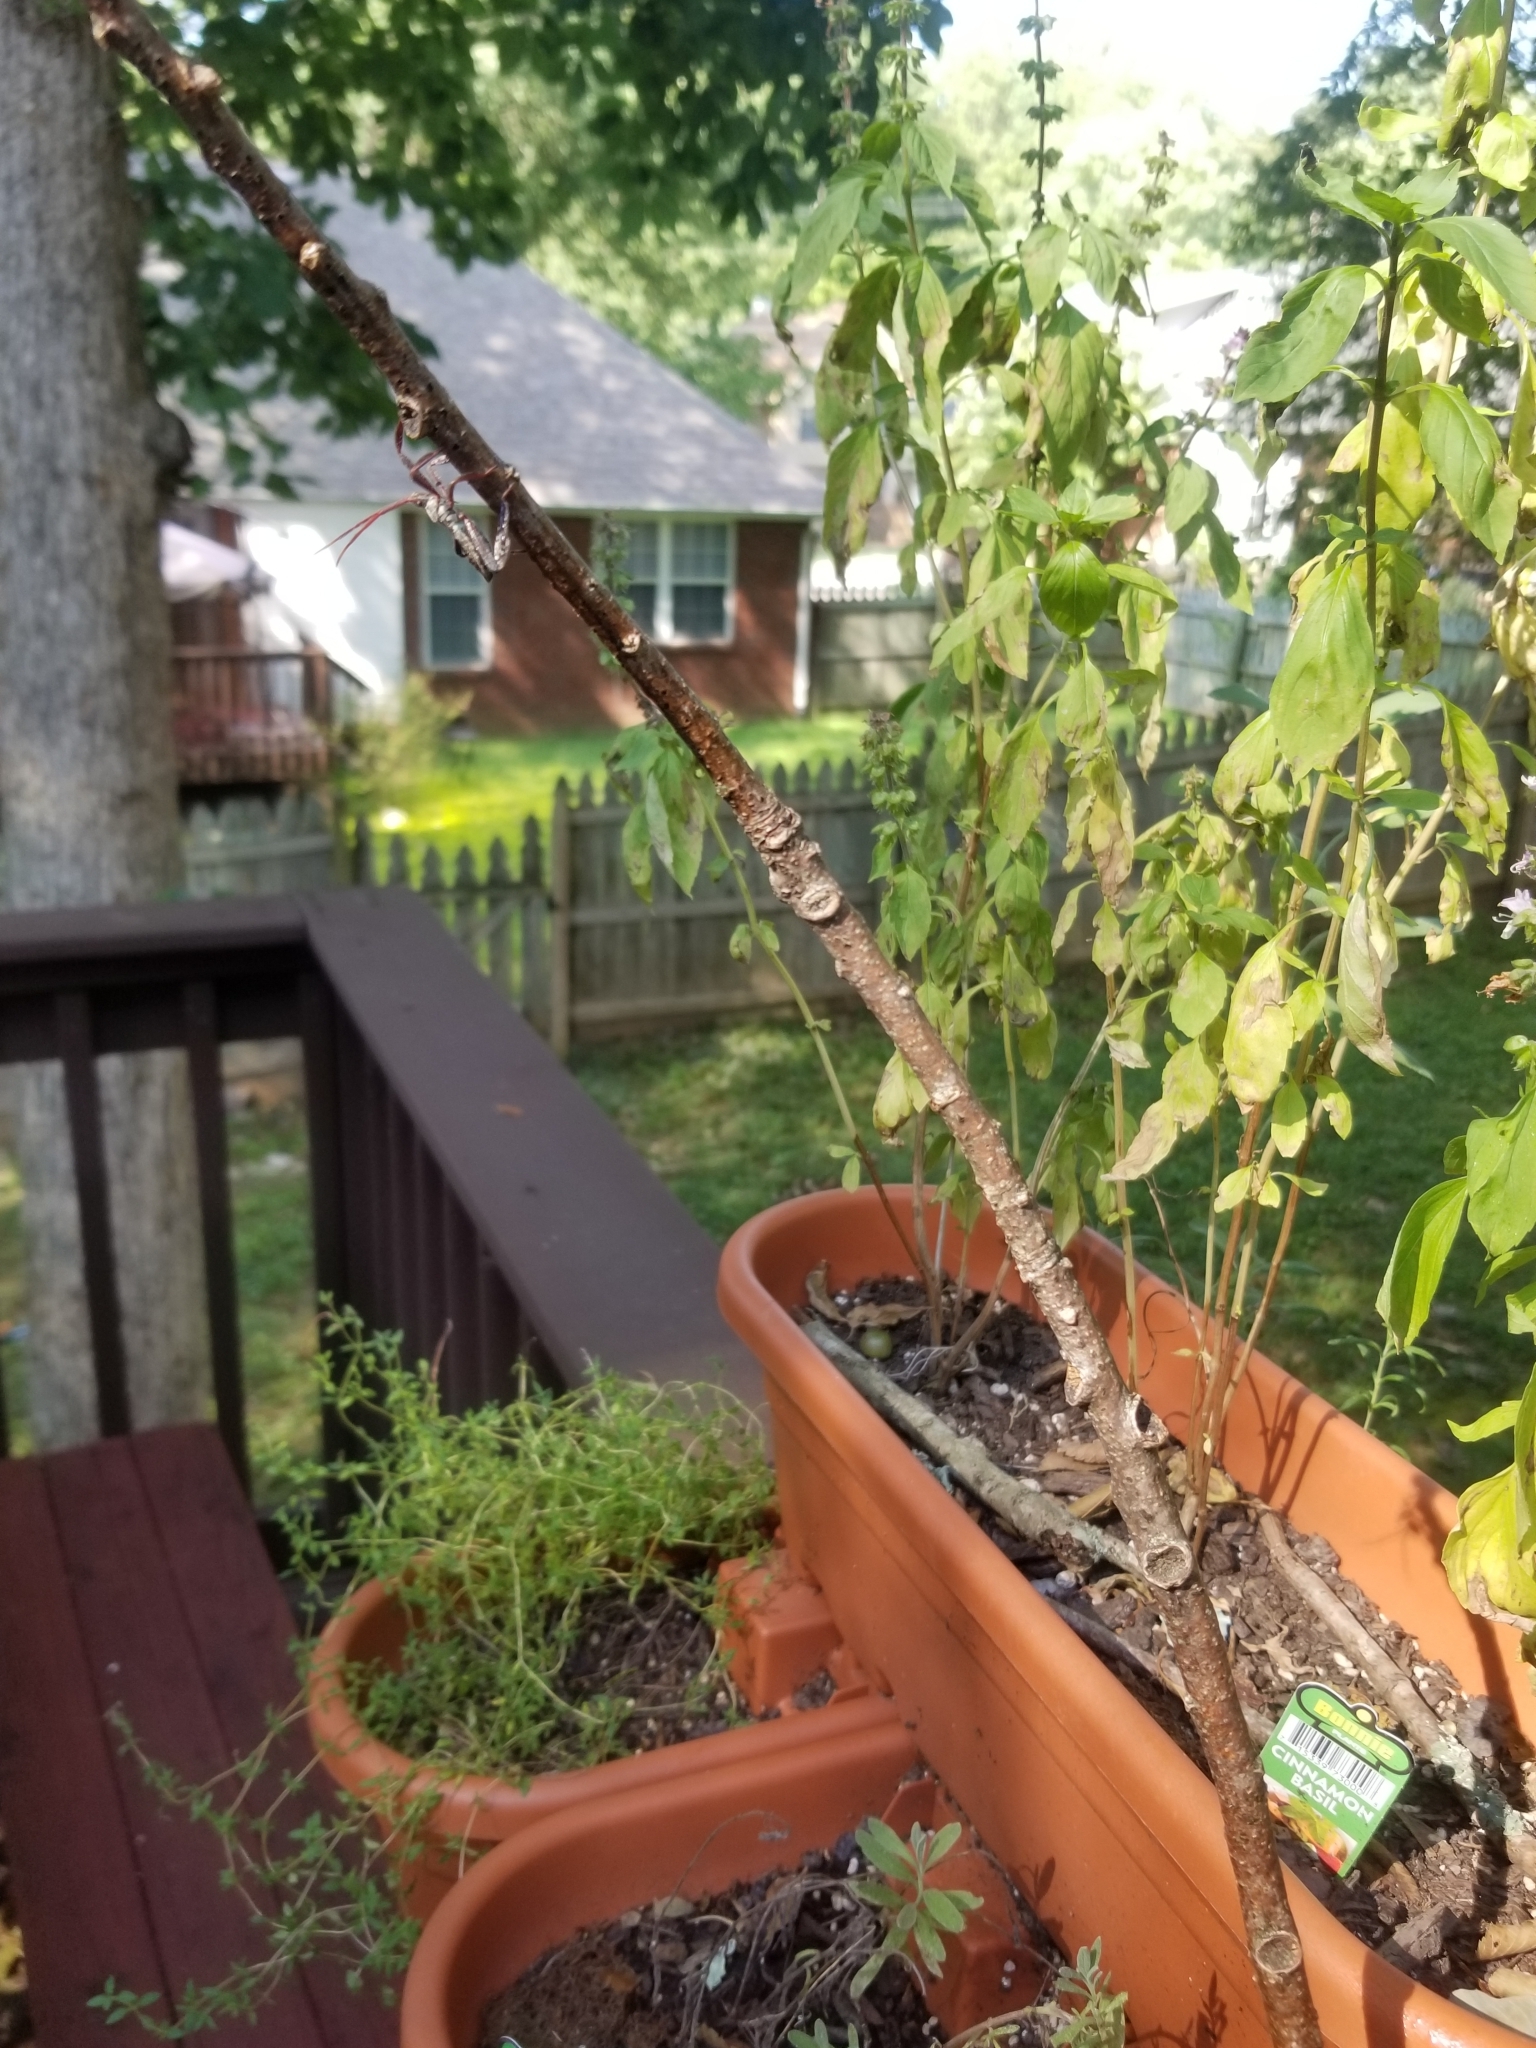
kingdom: Animalia
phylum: Arthropoda
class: Insecta
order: Hemiptera
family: Coreidae
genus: Acanthocephala
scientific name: Acanthocephala declivis
